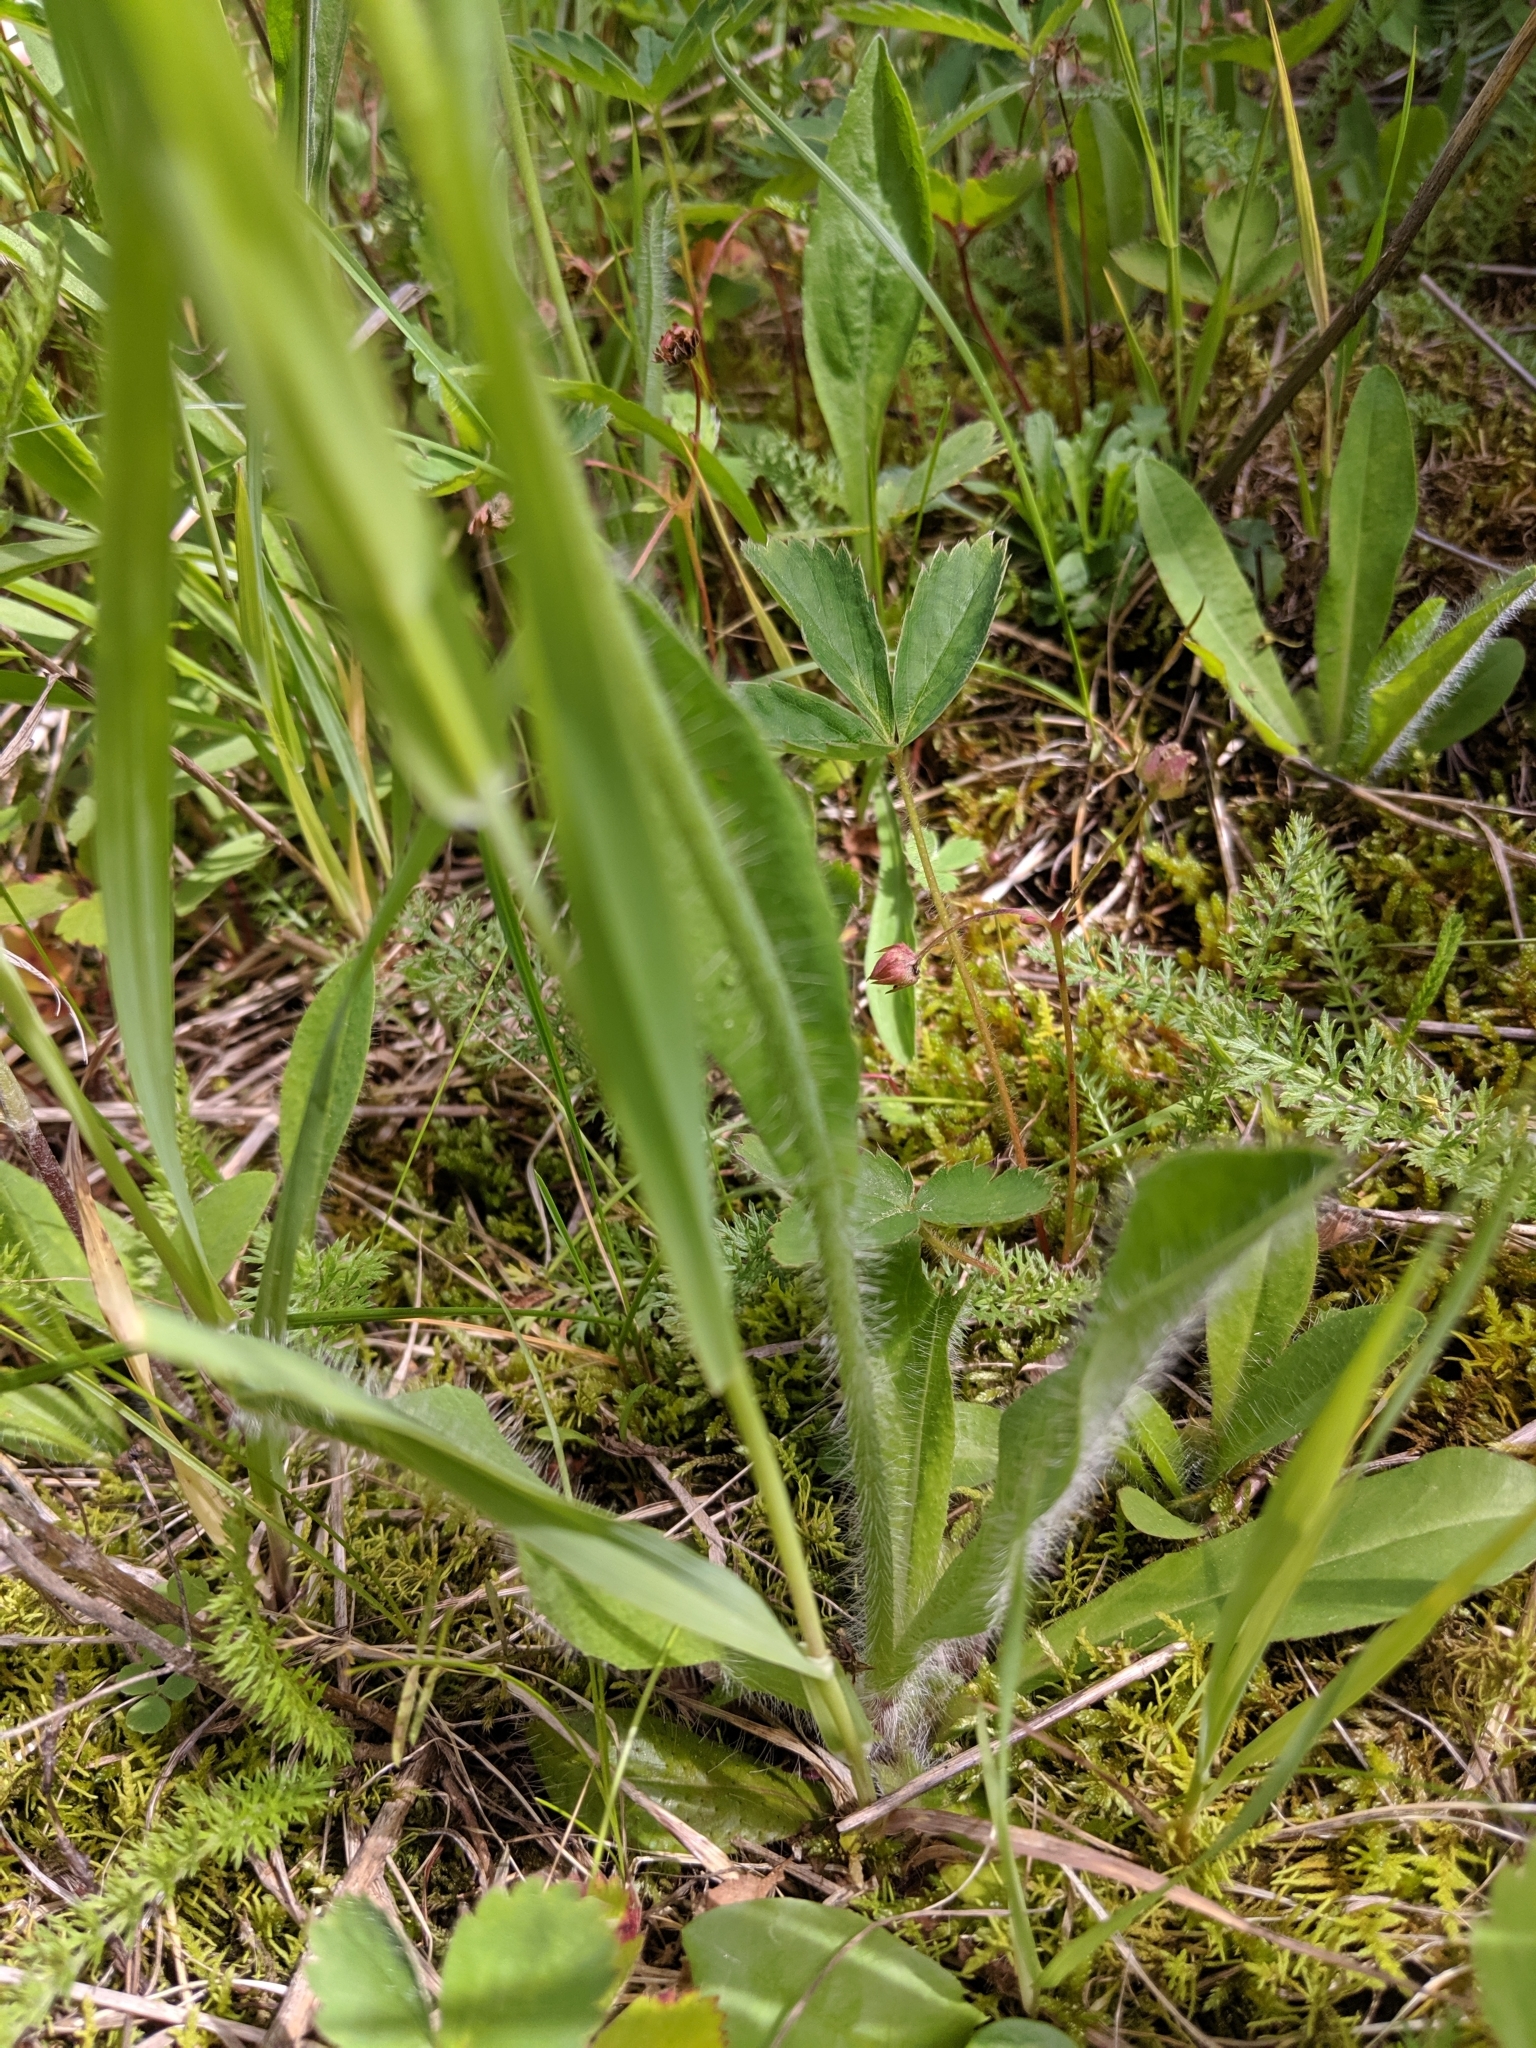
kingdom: Plantae
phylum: Tracheophyta
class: Magnoliopsida
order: Asterales
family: Asteraceae
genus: Pilosella
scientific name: Pilosella aurantiaca
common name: Fox-and-cubs
